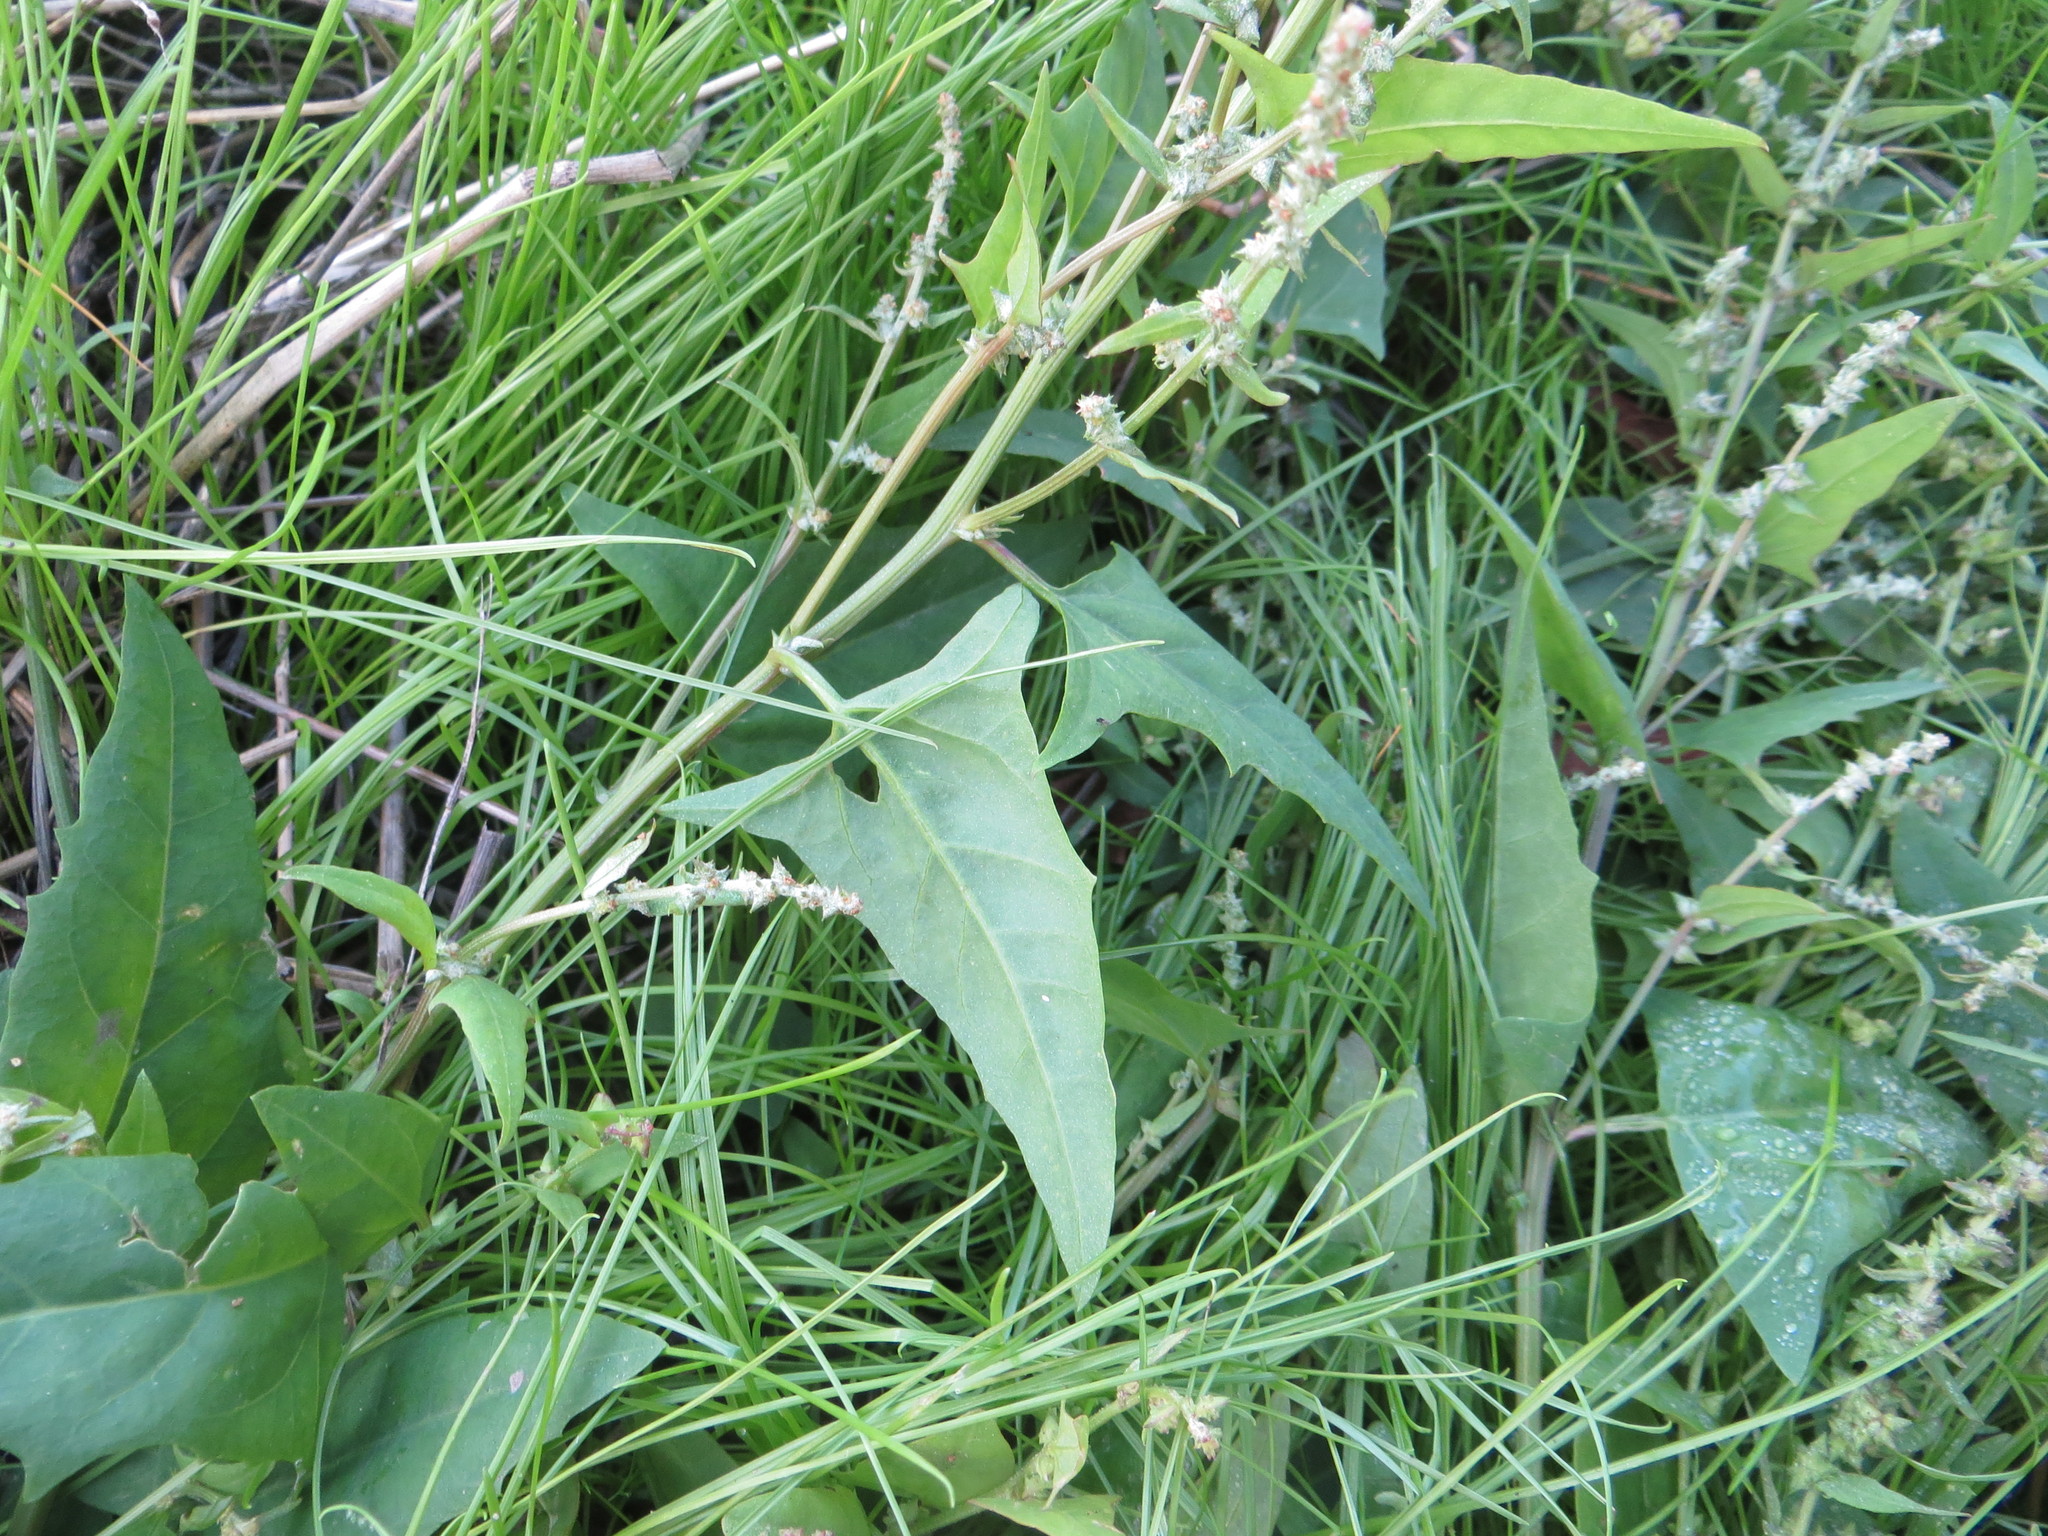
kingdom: Plantae
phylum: Tracheophyta
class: Magnoliopsida
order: Caryophyllales
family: Amaranthaceae
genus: Atriplex
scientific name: Atriplex prostrata
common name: Spear-leaved orache
